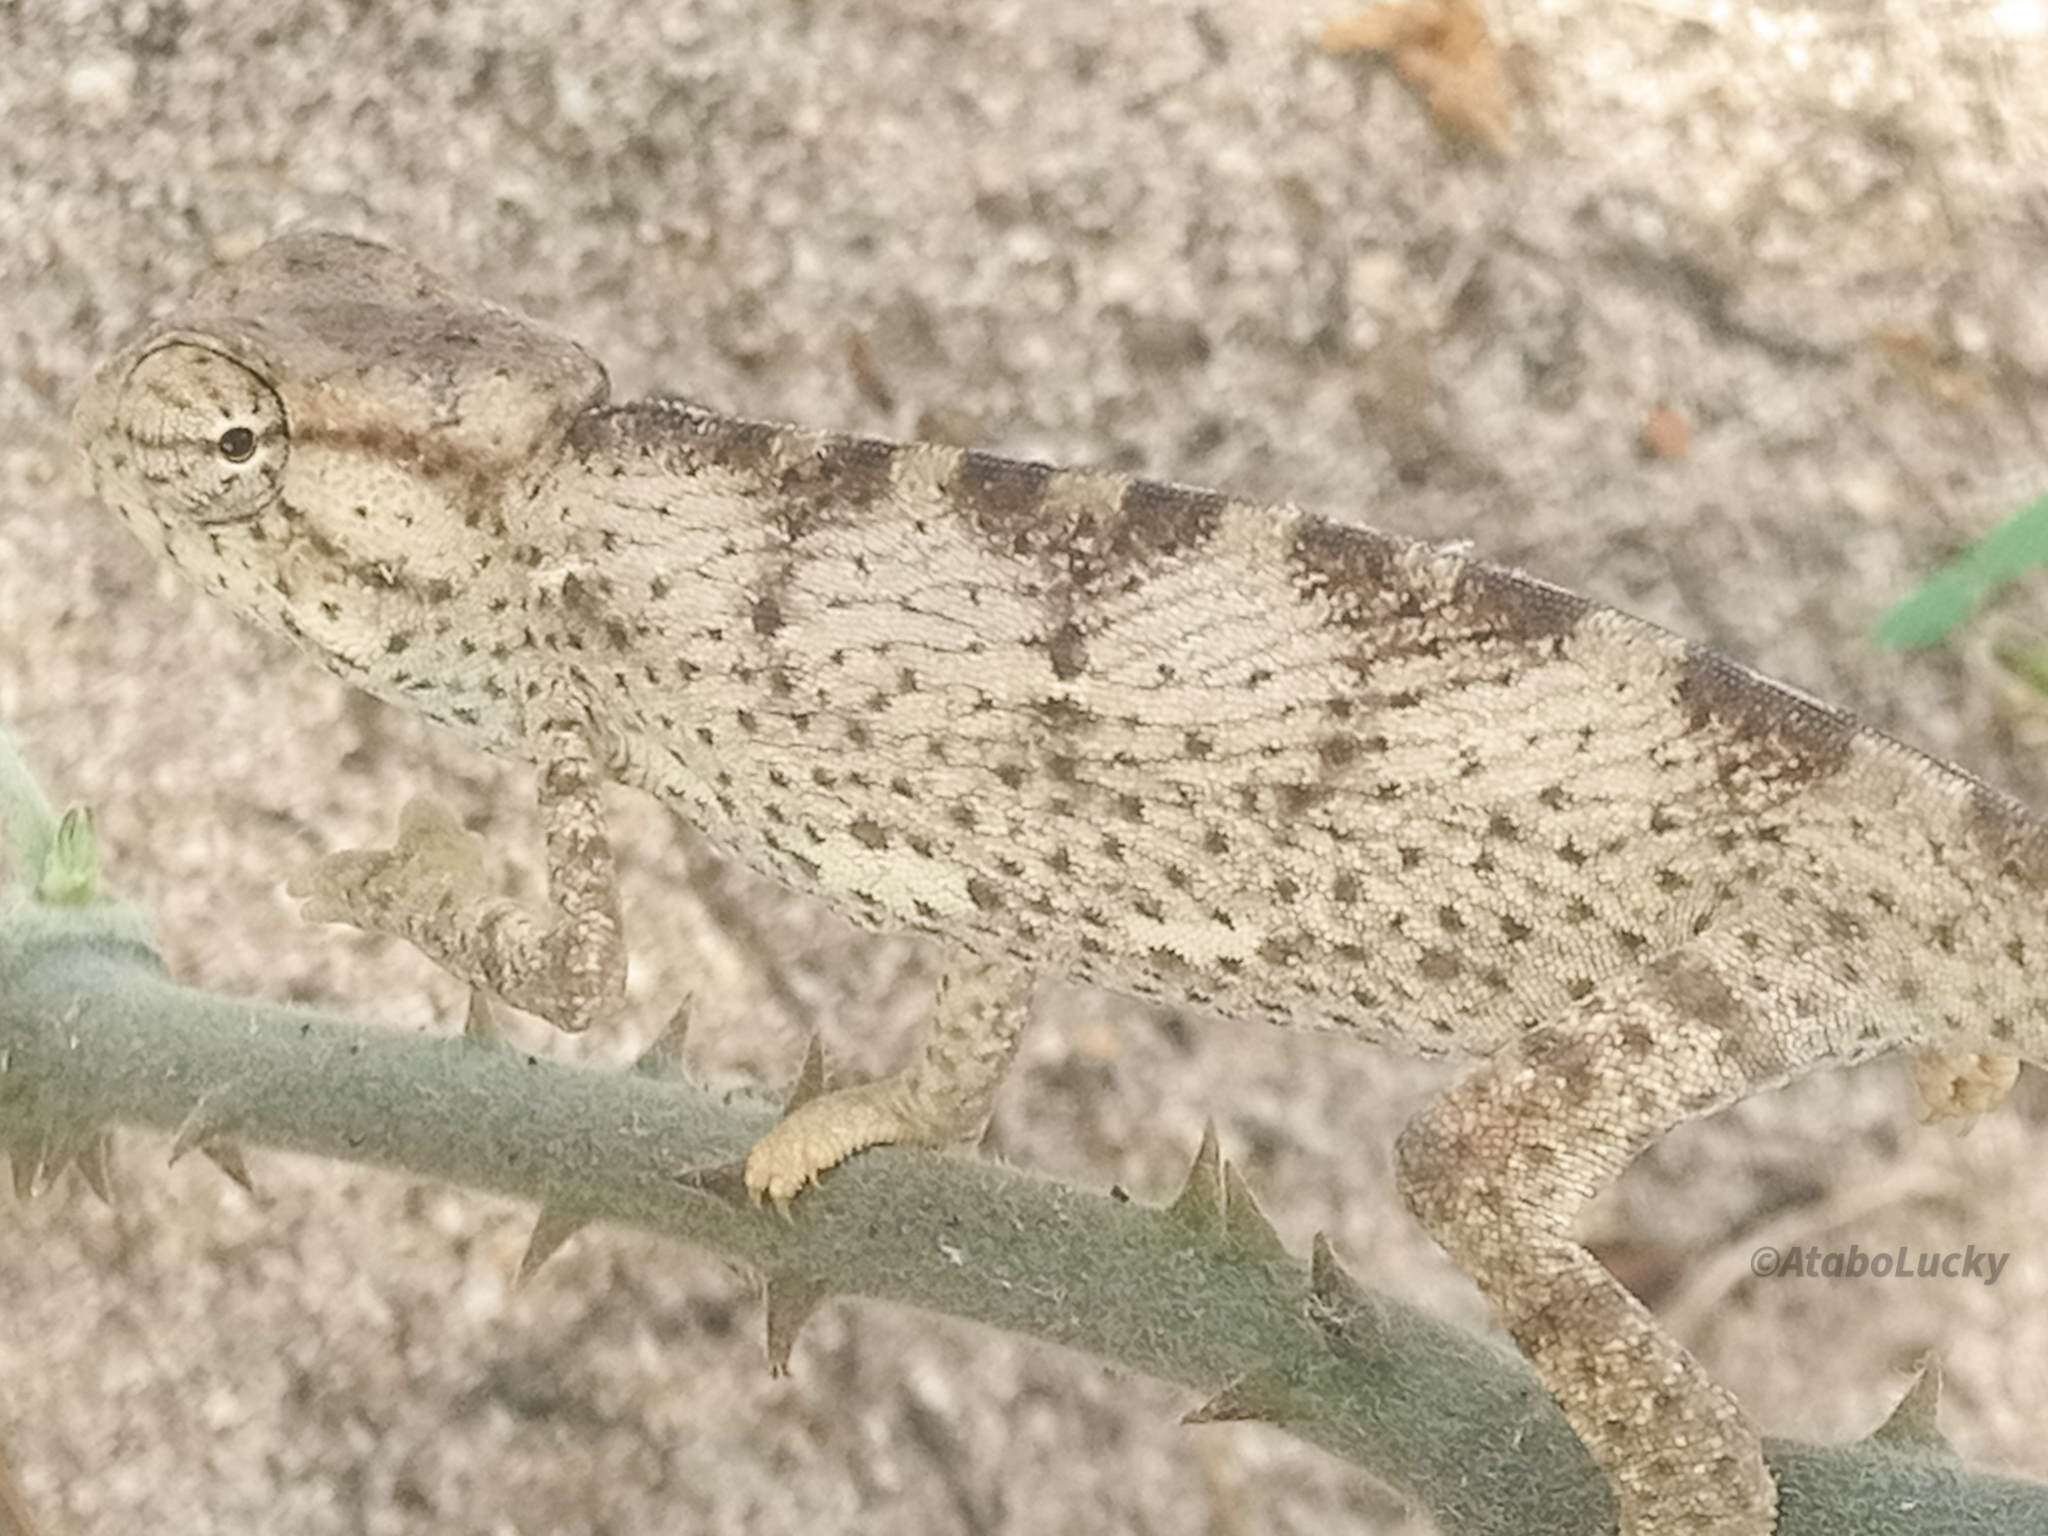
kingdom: Animalia
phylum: Chordata
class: Squamata
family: Chamaeleonidae
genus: Chamaeleo
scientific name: Chamaeleo senegalensis
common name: Senegal chameleon
